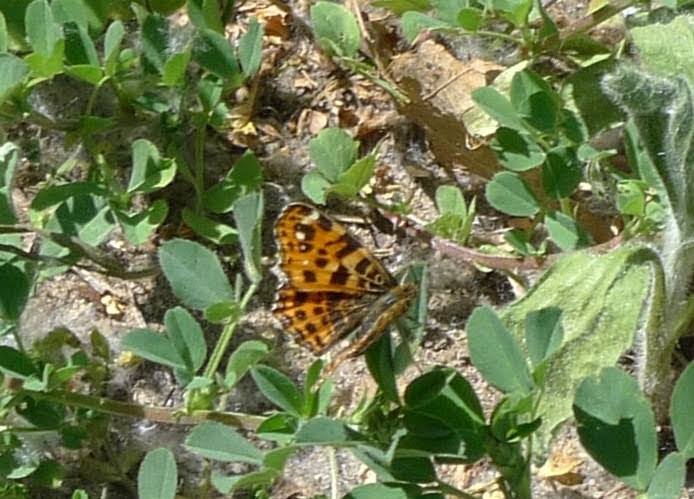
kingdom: Animalia
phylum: Arthropoda
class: Insecta
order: Lepidoptera
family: Nymphalidae
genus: Araschnia
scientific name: Araschnia levana
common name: Map butterfly
